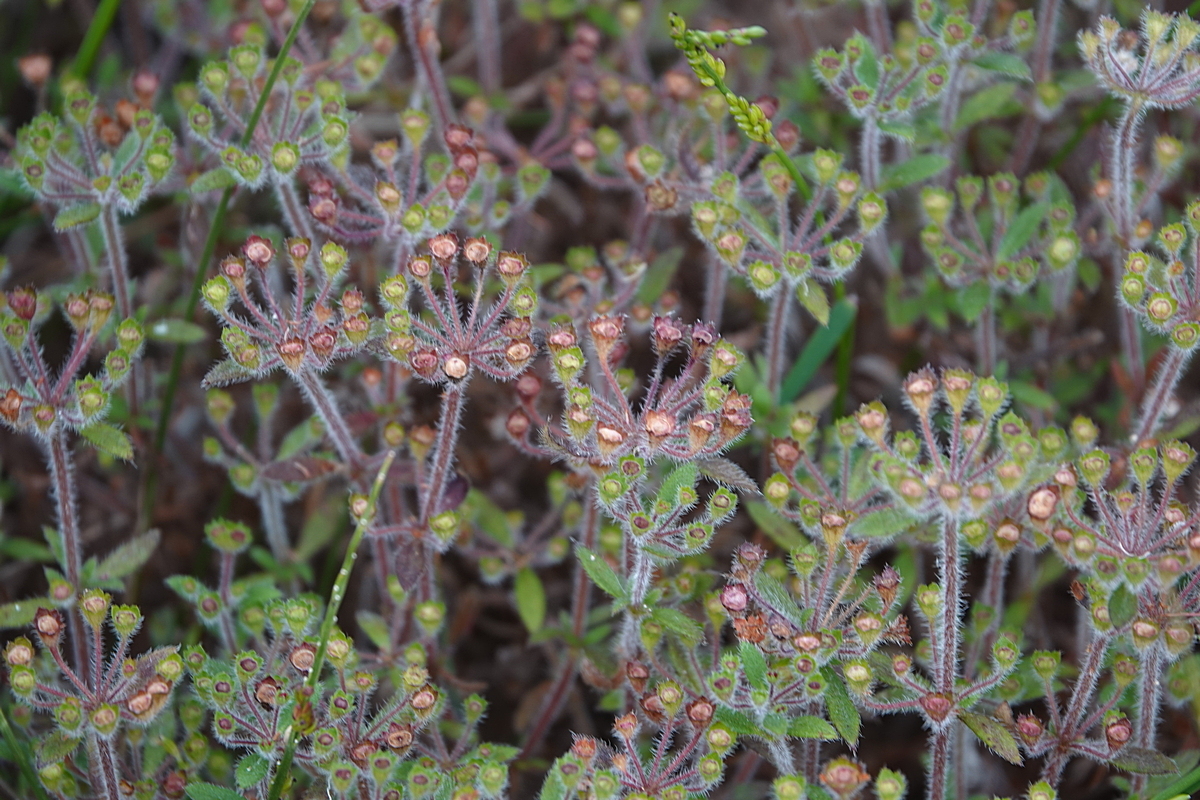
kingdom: Plantae
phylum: Tracheophyta
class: Magnoliopsida
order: Gentianales
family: Rubiaceae
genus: Pomax
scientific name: Pomax umbellata
